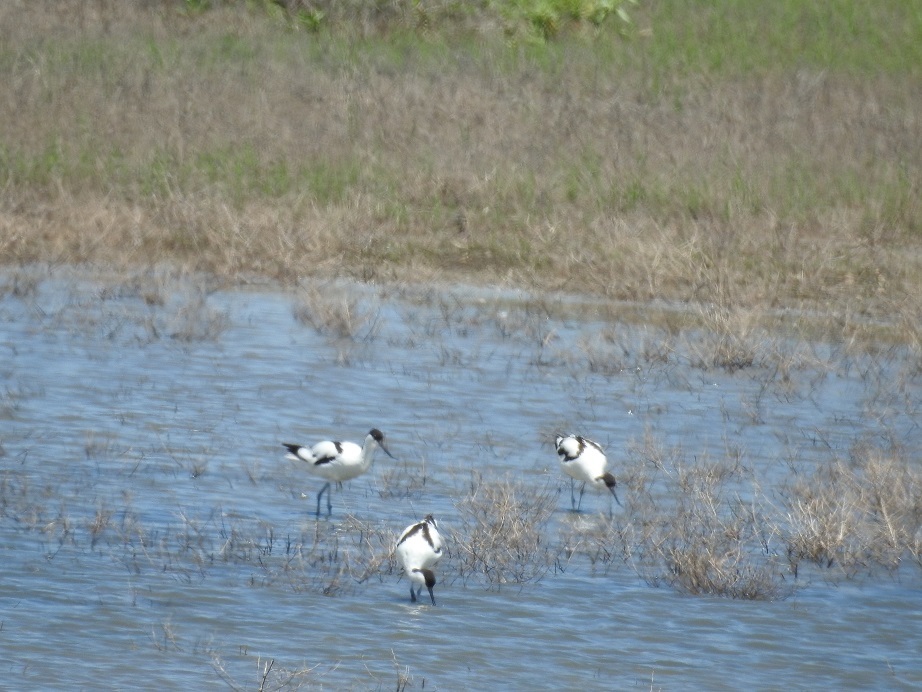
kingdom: Animalia
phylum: Chordata
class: Aves
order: Charadriiformes
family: Recurvirostridae
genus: Recurvirostra
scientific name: Recurvirostra avosetta
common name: Pied avocet
